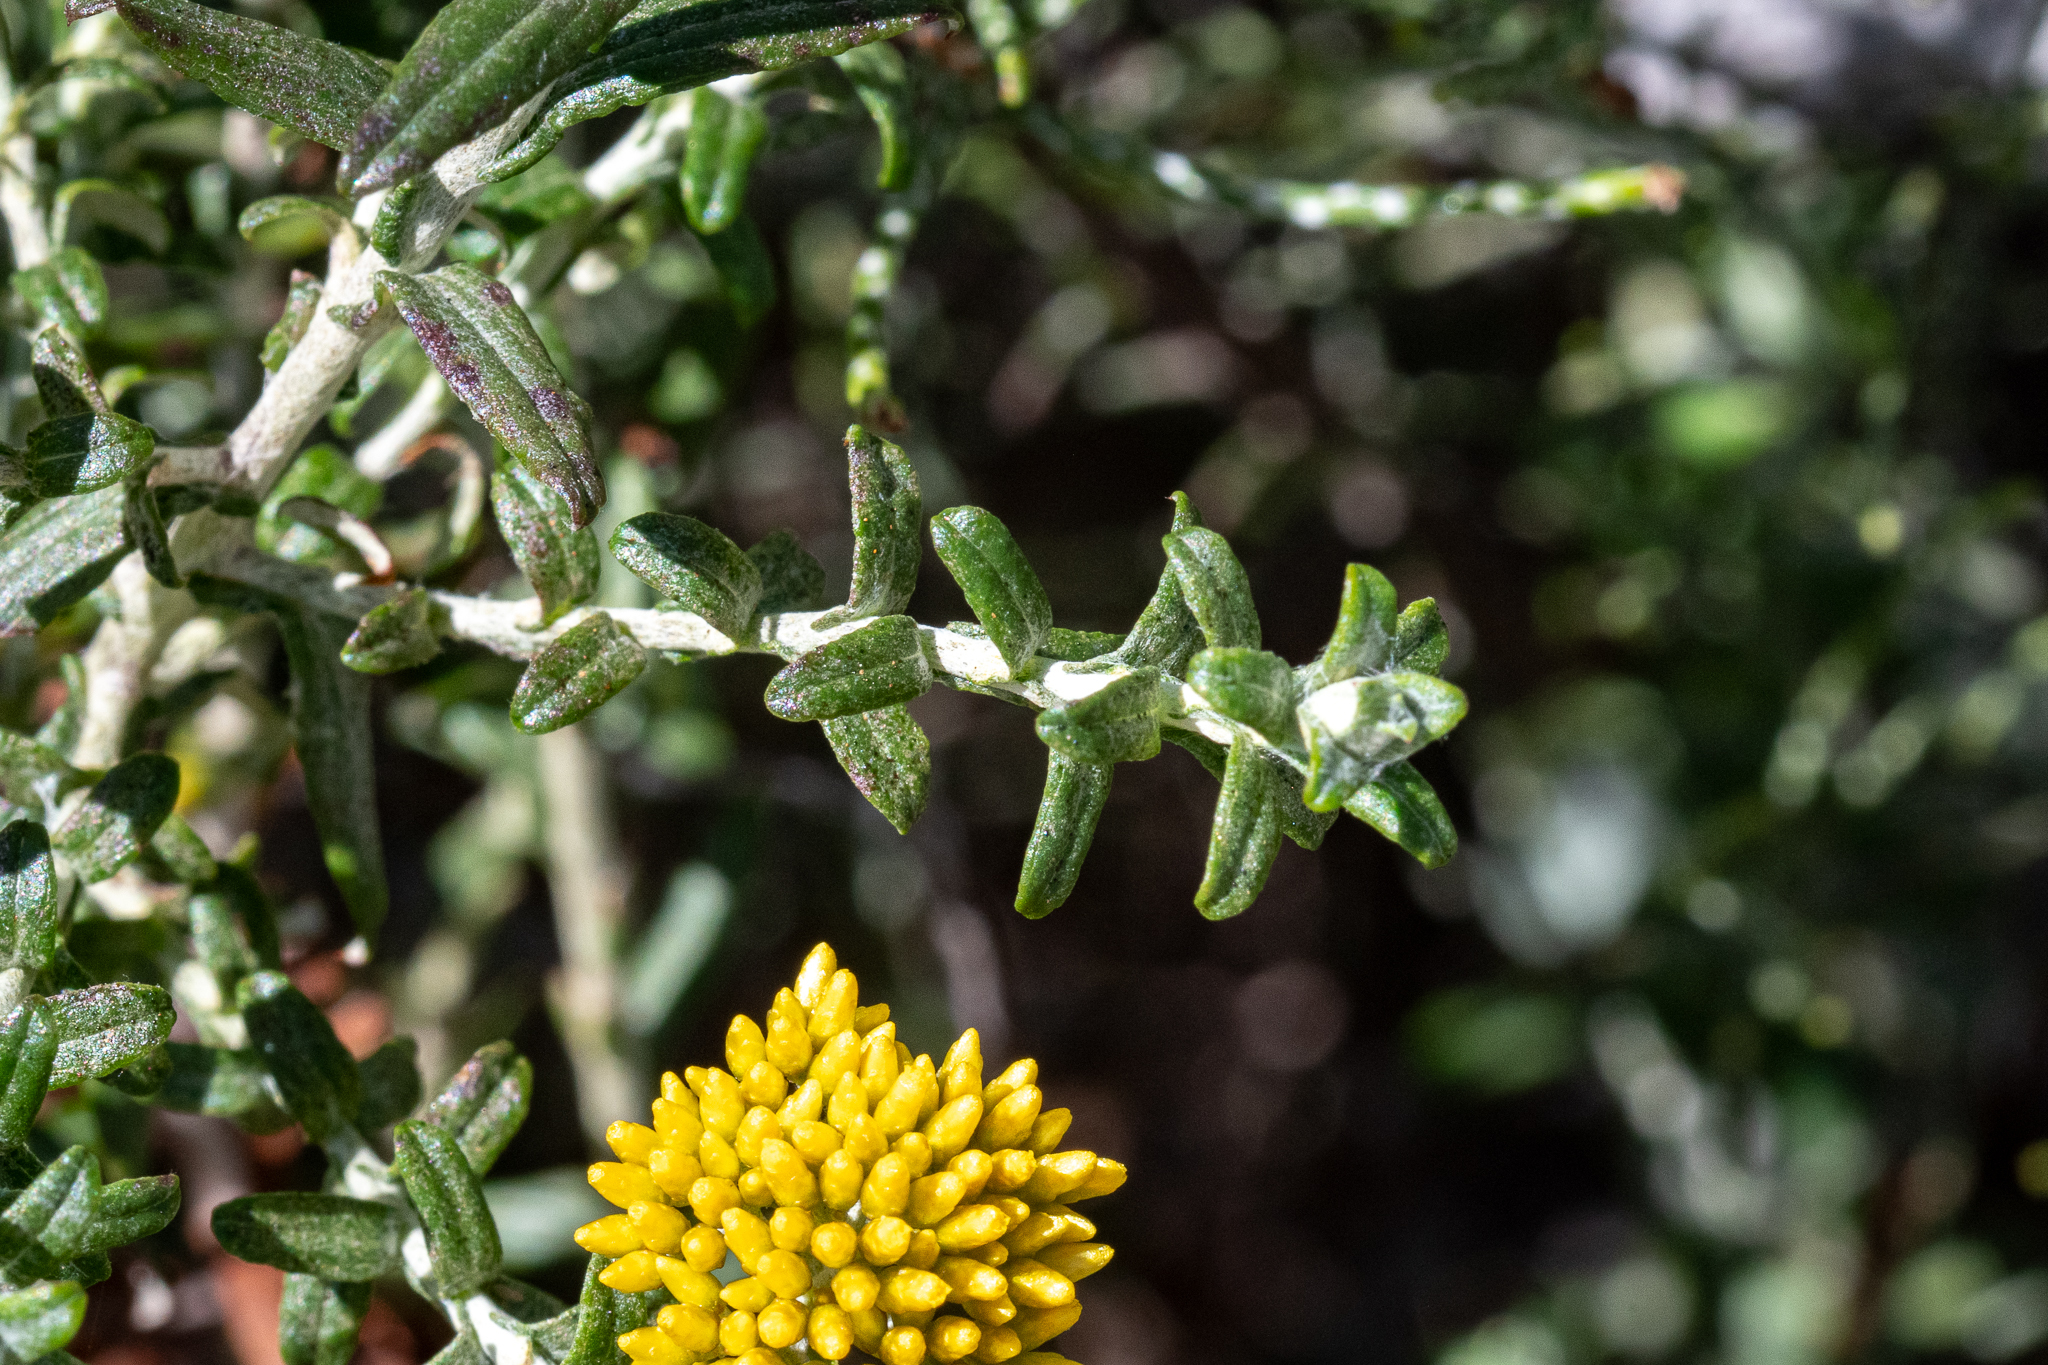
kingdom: Plantae
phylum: Tracheophyta
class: Magnoliopsida
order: Asterales
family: Asteraceae
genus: Helichrysum
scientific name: Helichrysum cymosum
